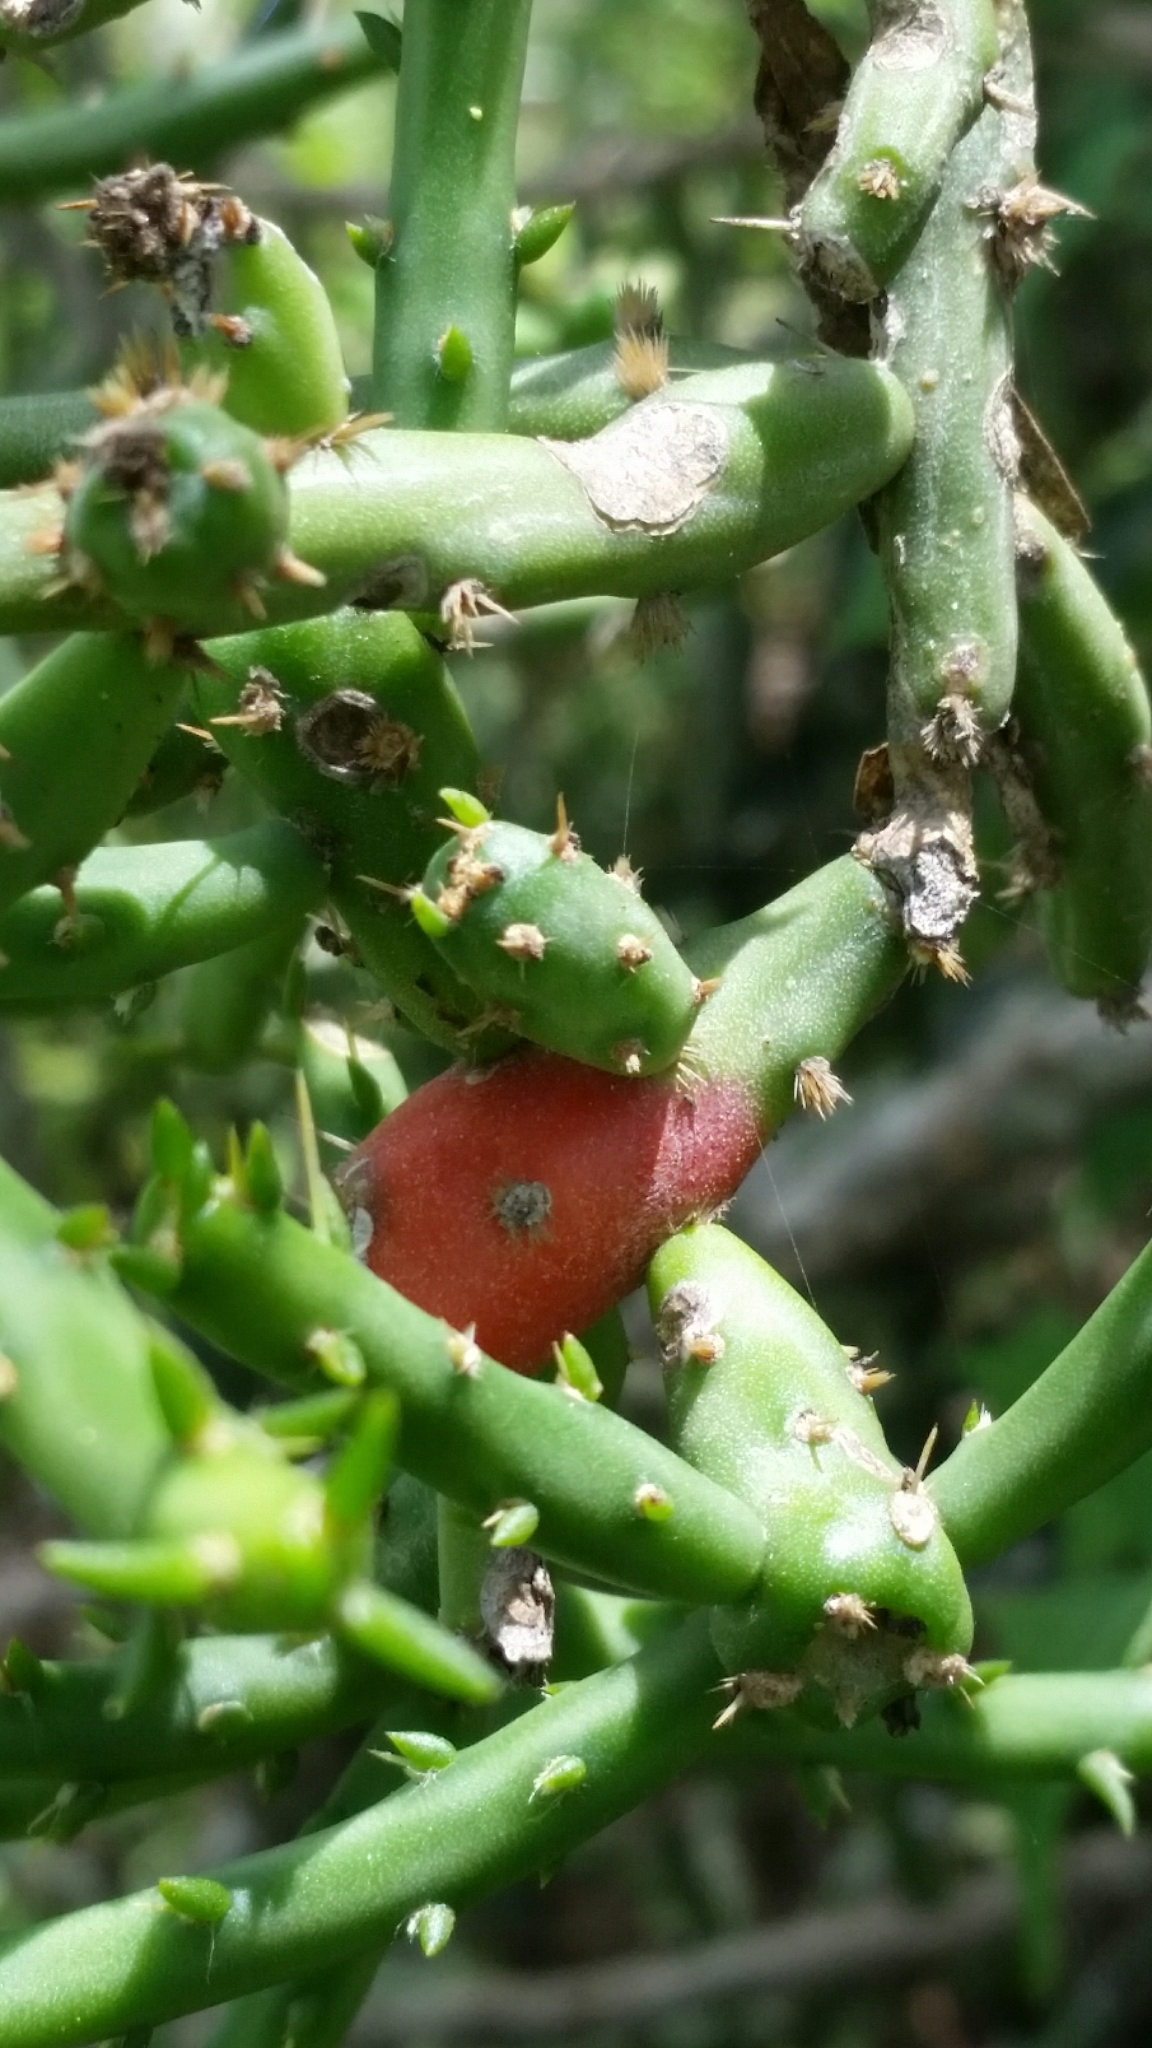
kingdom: Plantae
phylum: Tracheophyta
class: Magnoliopsida
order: Caryophyllales
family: Cactaceae
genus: Cylindropuntia
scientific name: Cylindropuntia leptocaulis
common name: Christmas cactus
